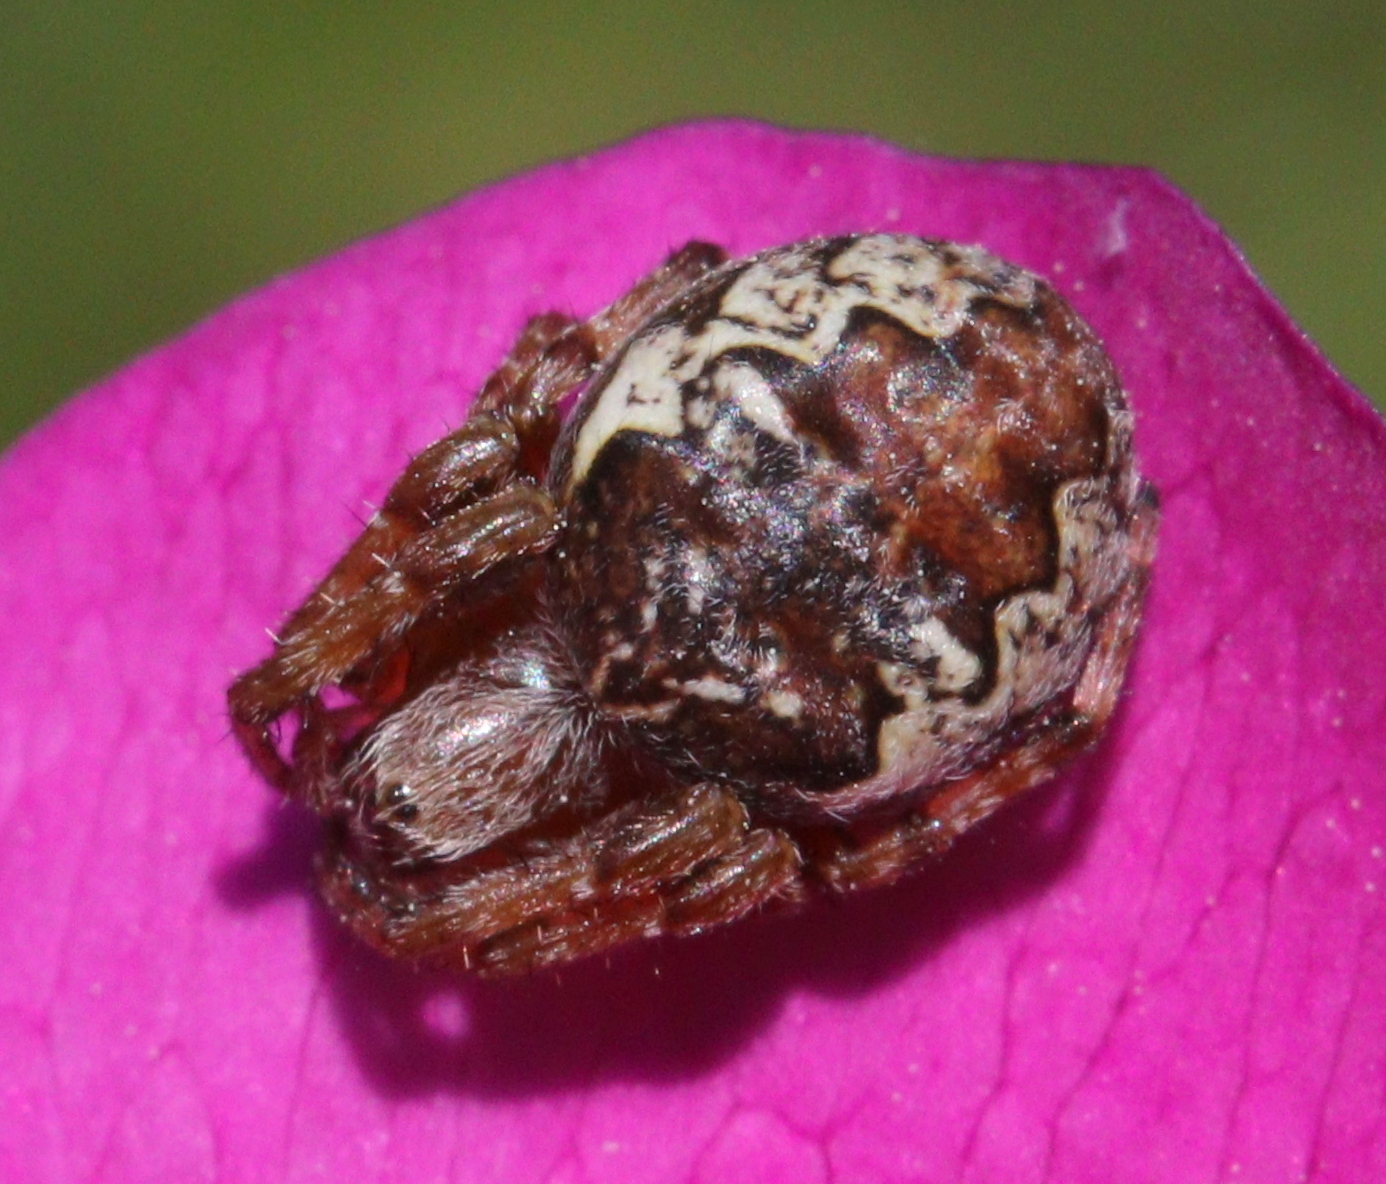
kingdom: Animalia
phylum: Arthropoda
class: Arachnida
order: Araneae
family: Araneidae
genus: Larinioides
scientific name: Larinioides patagiatus
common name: Ornamental orbweaver
